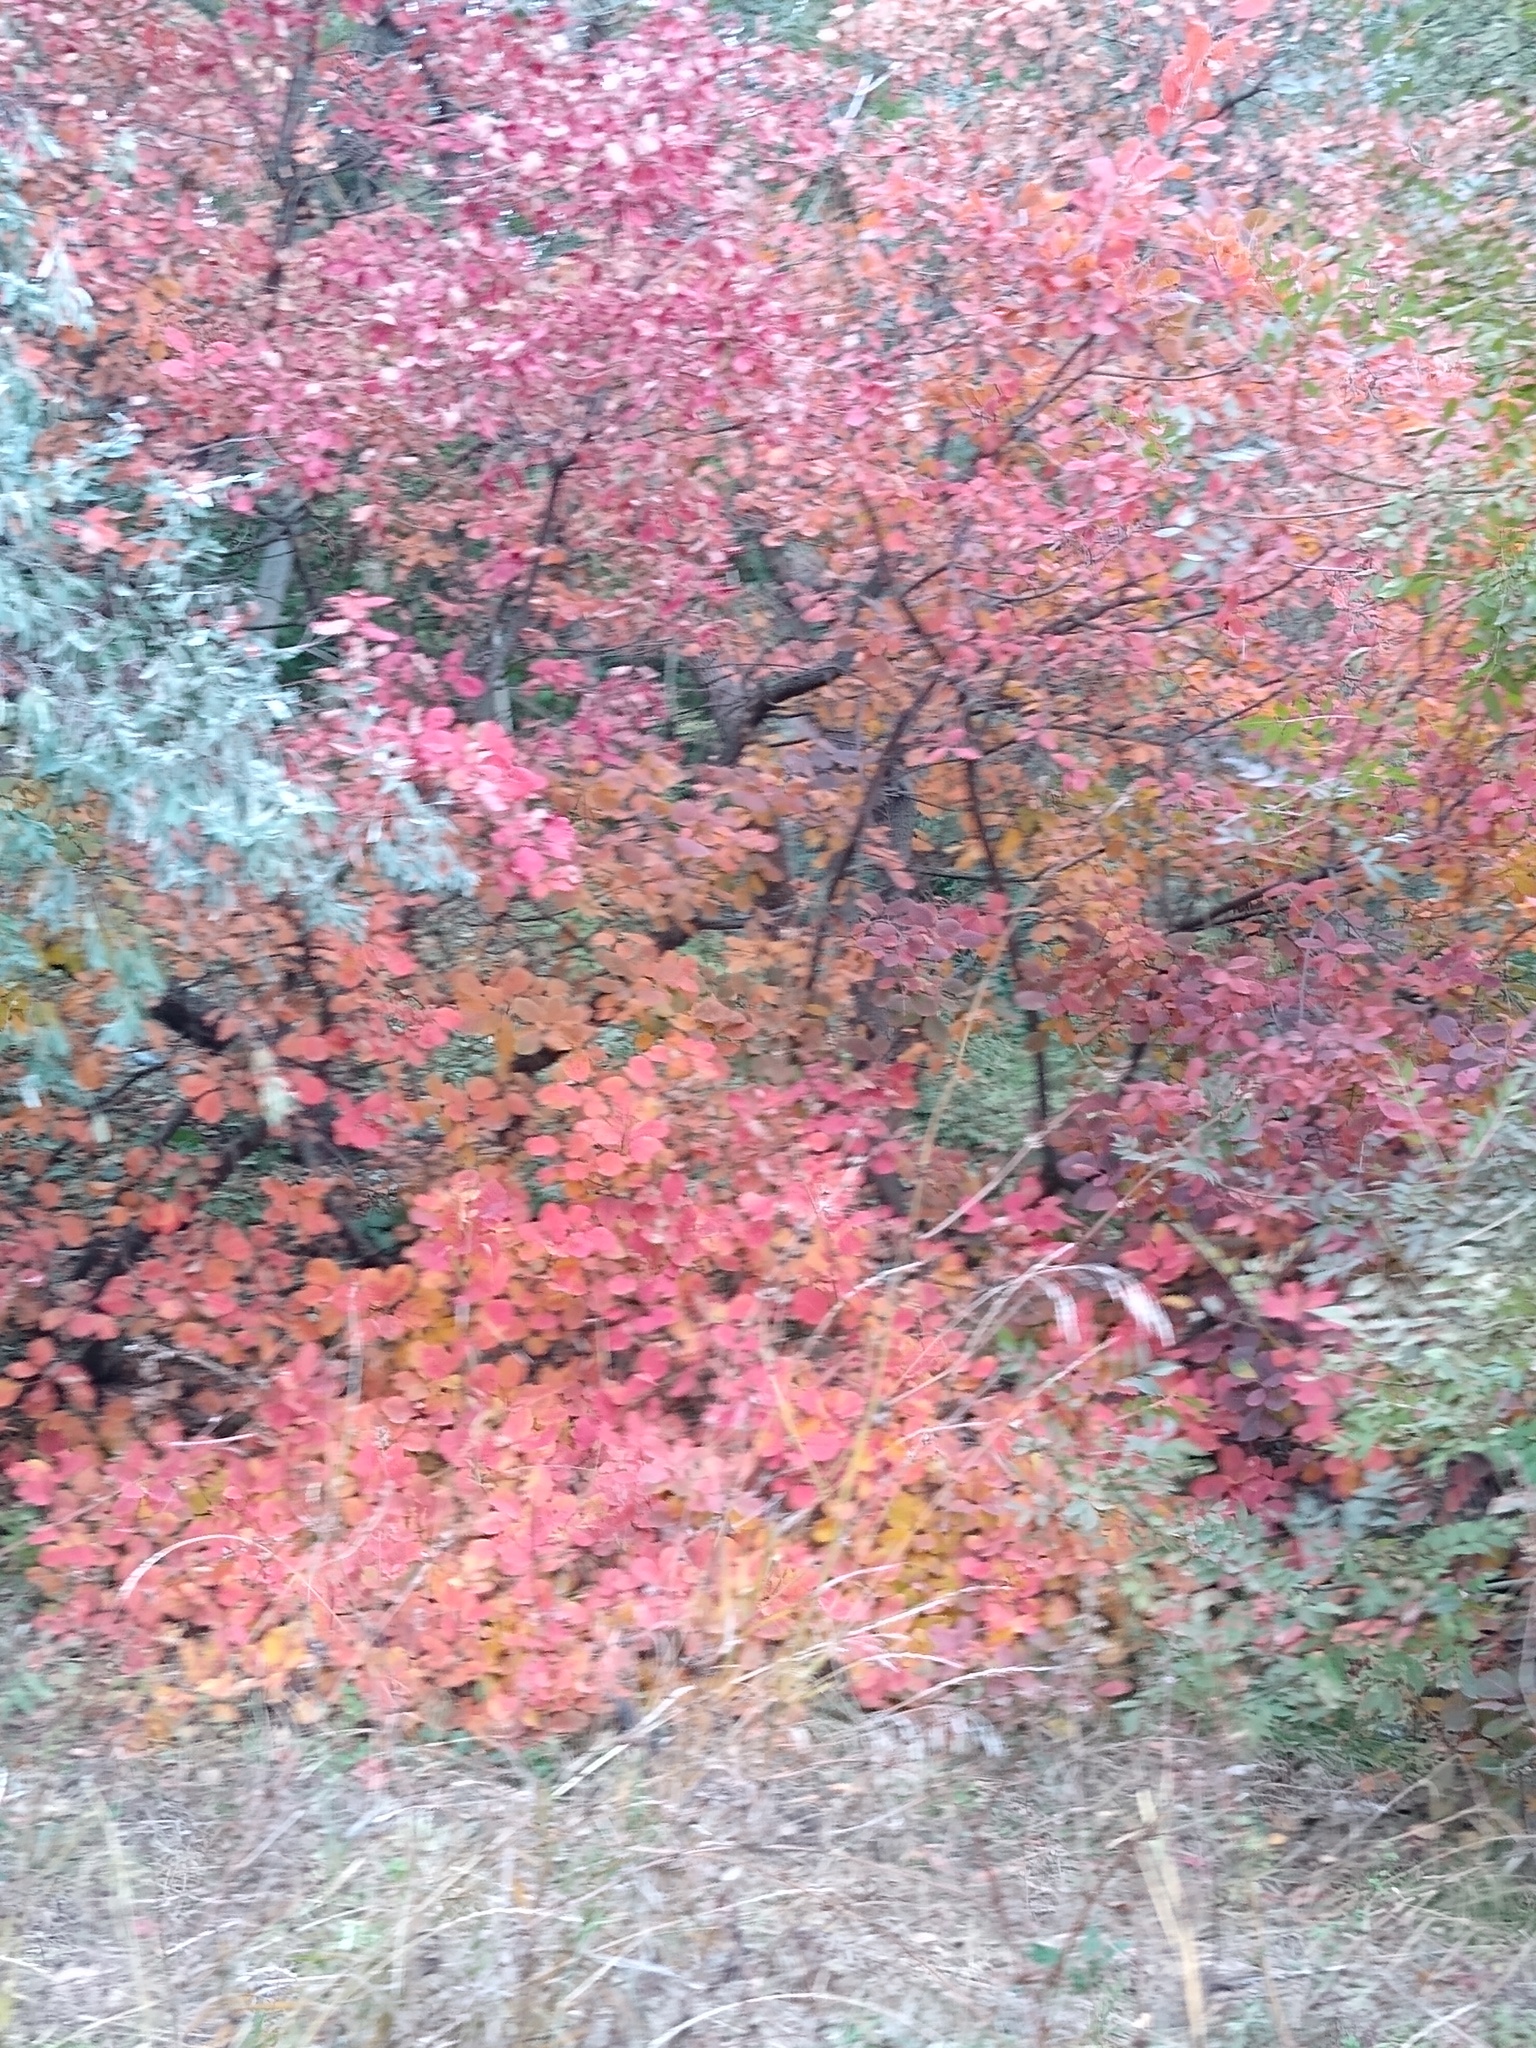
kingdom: Plantae
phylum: Tracheophyta
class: Magnoliopsida
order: Sapindales
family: Anacardiaceae
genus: Cotinus
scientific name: Cotinus coggygria
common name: Smoke-tree
